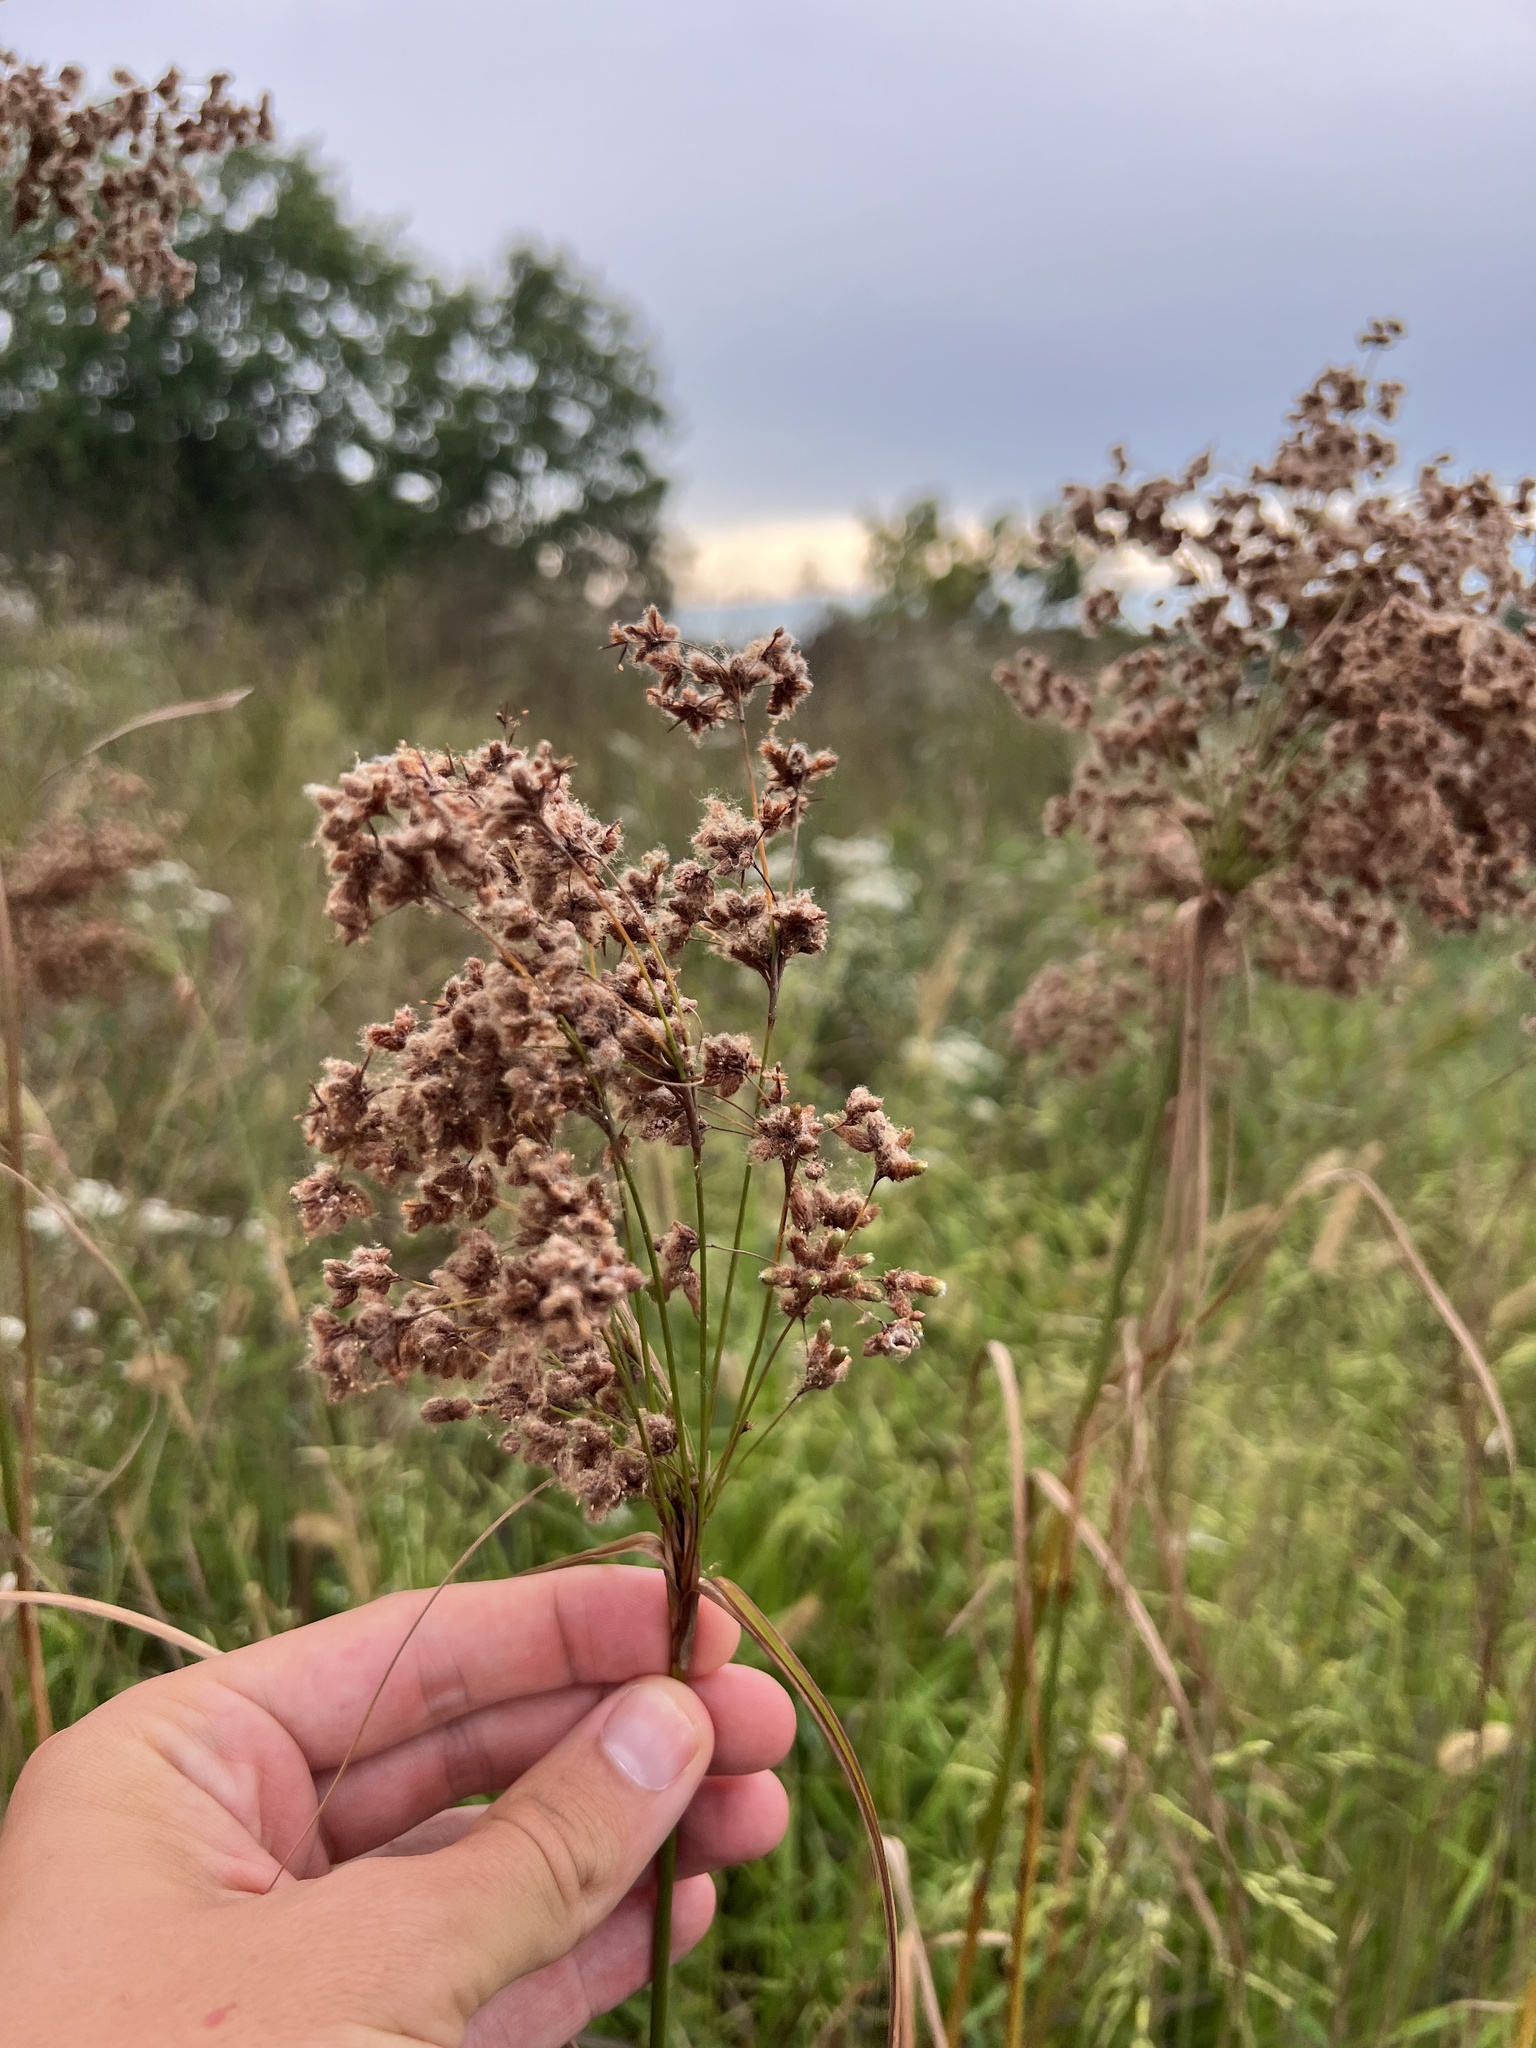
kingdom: Plantae
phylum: Tracheophyta
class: Liliopsida
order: Poales
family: Cyperaceae
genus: Scirpus
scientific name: Scirpus cyperinus
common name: Black-sheathed bulrush
